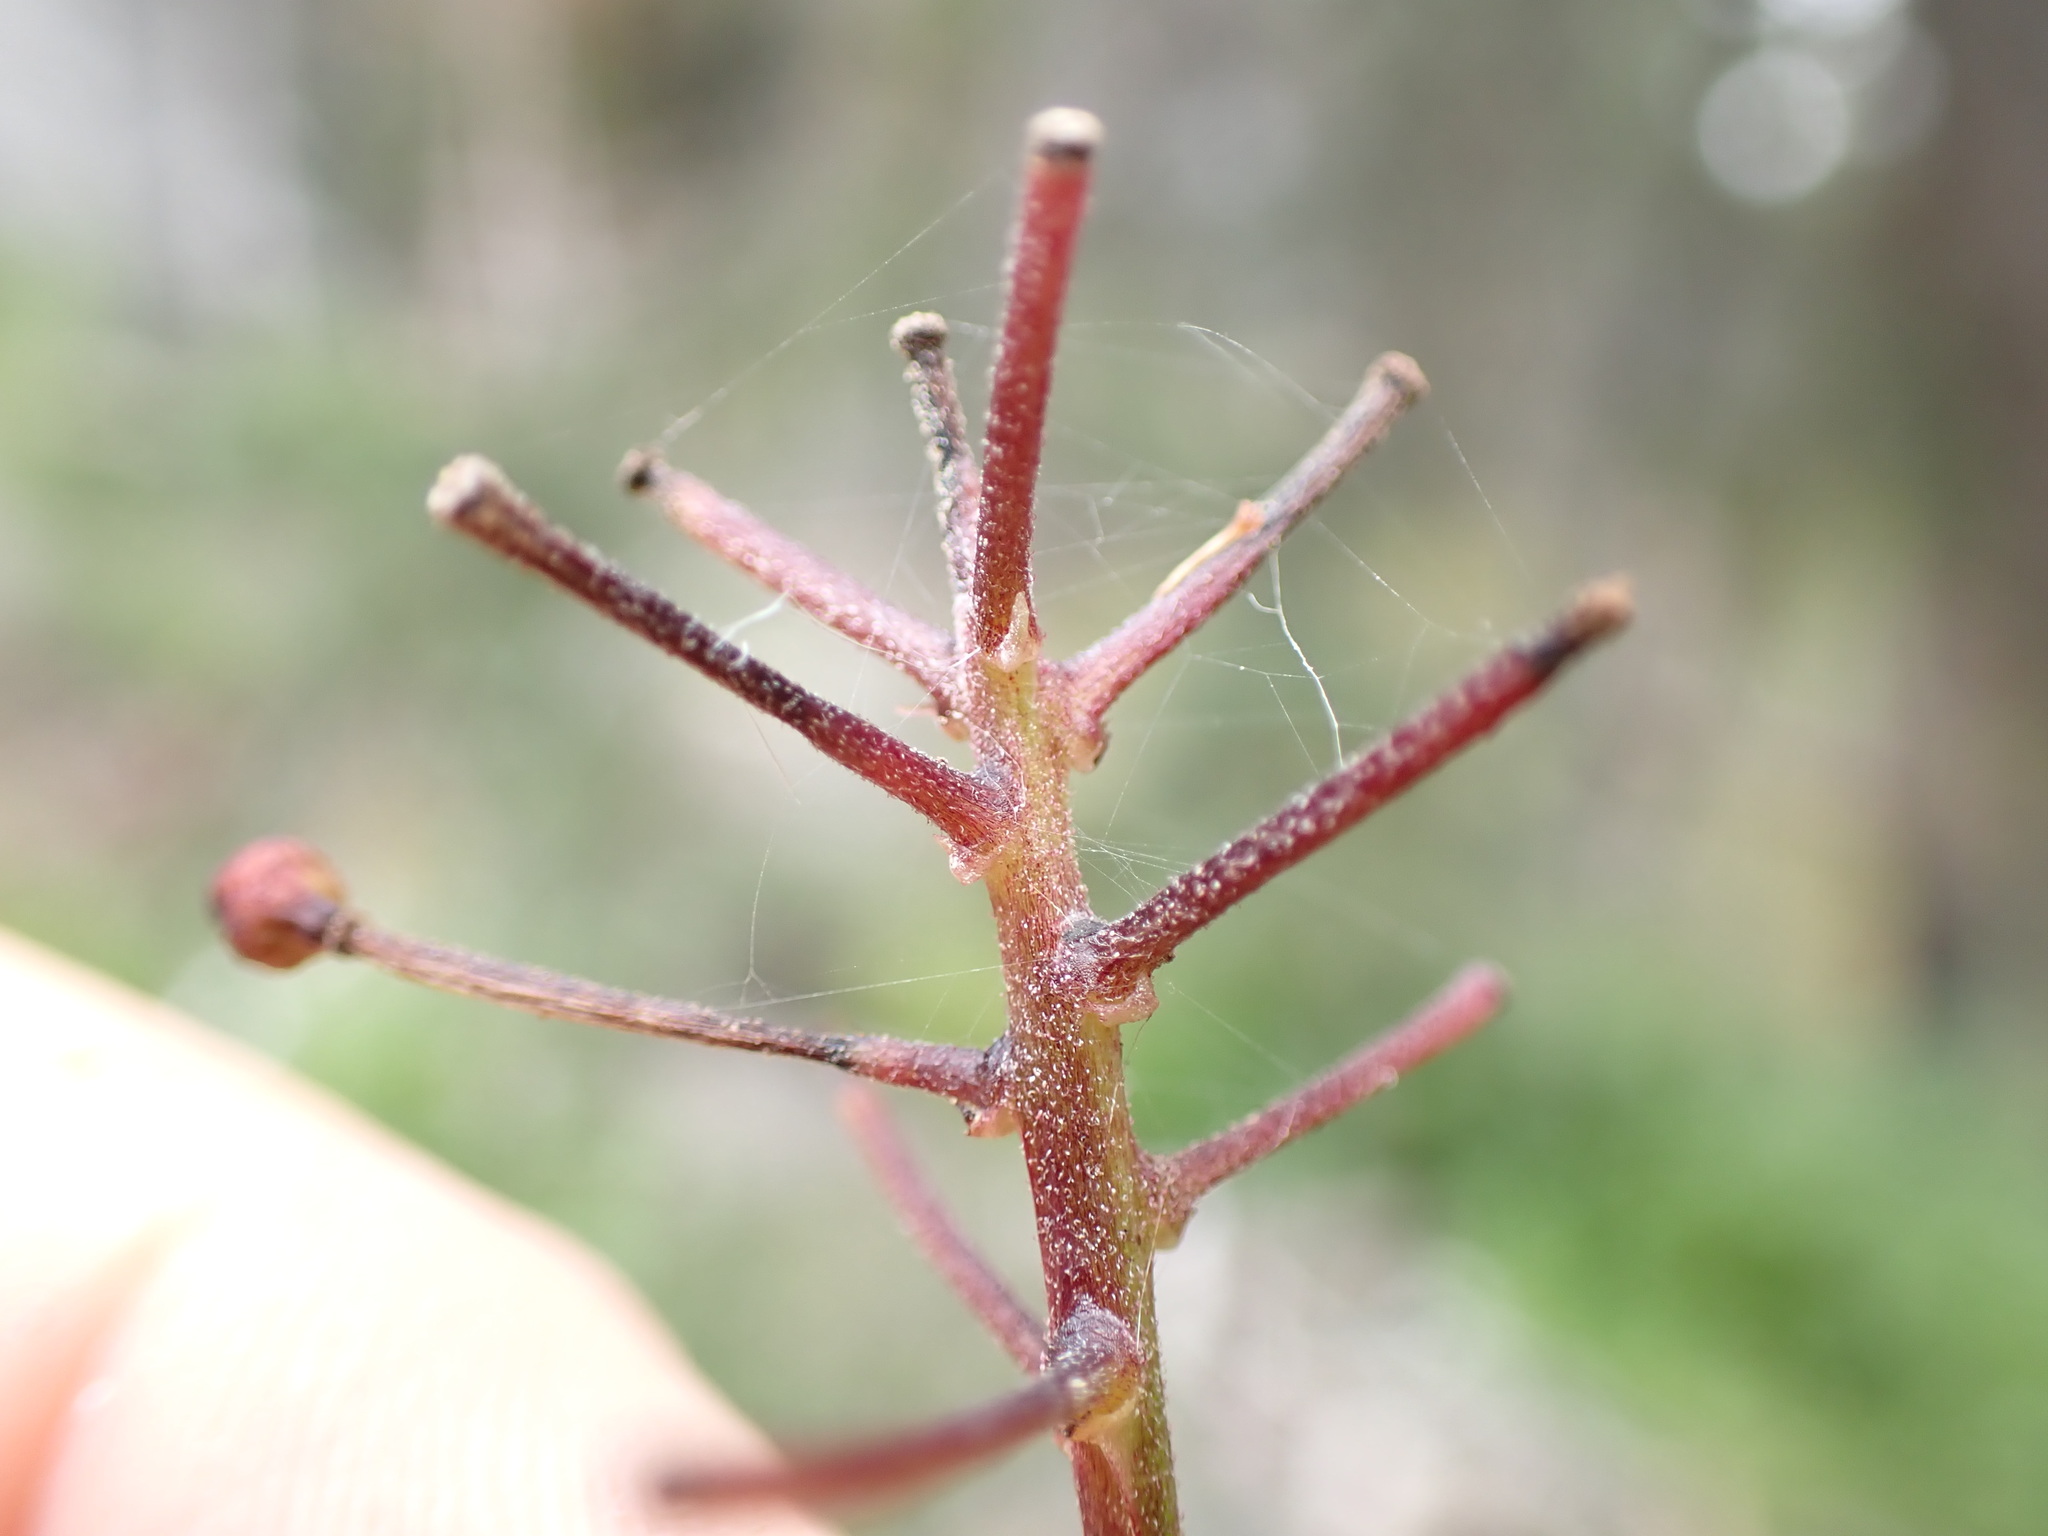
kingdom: Plantae
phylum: Tracheophyta
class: Magnoliopsida
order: Ranunculales
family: Ranunculaceae
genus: Actaea
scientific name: Actaea rubra
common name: Red baneberry
